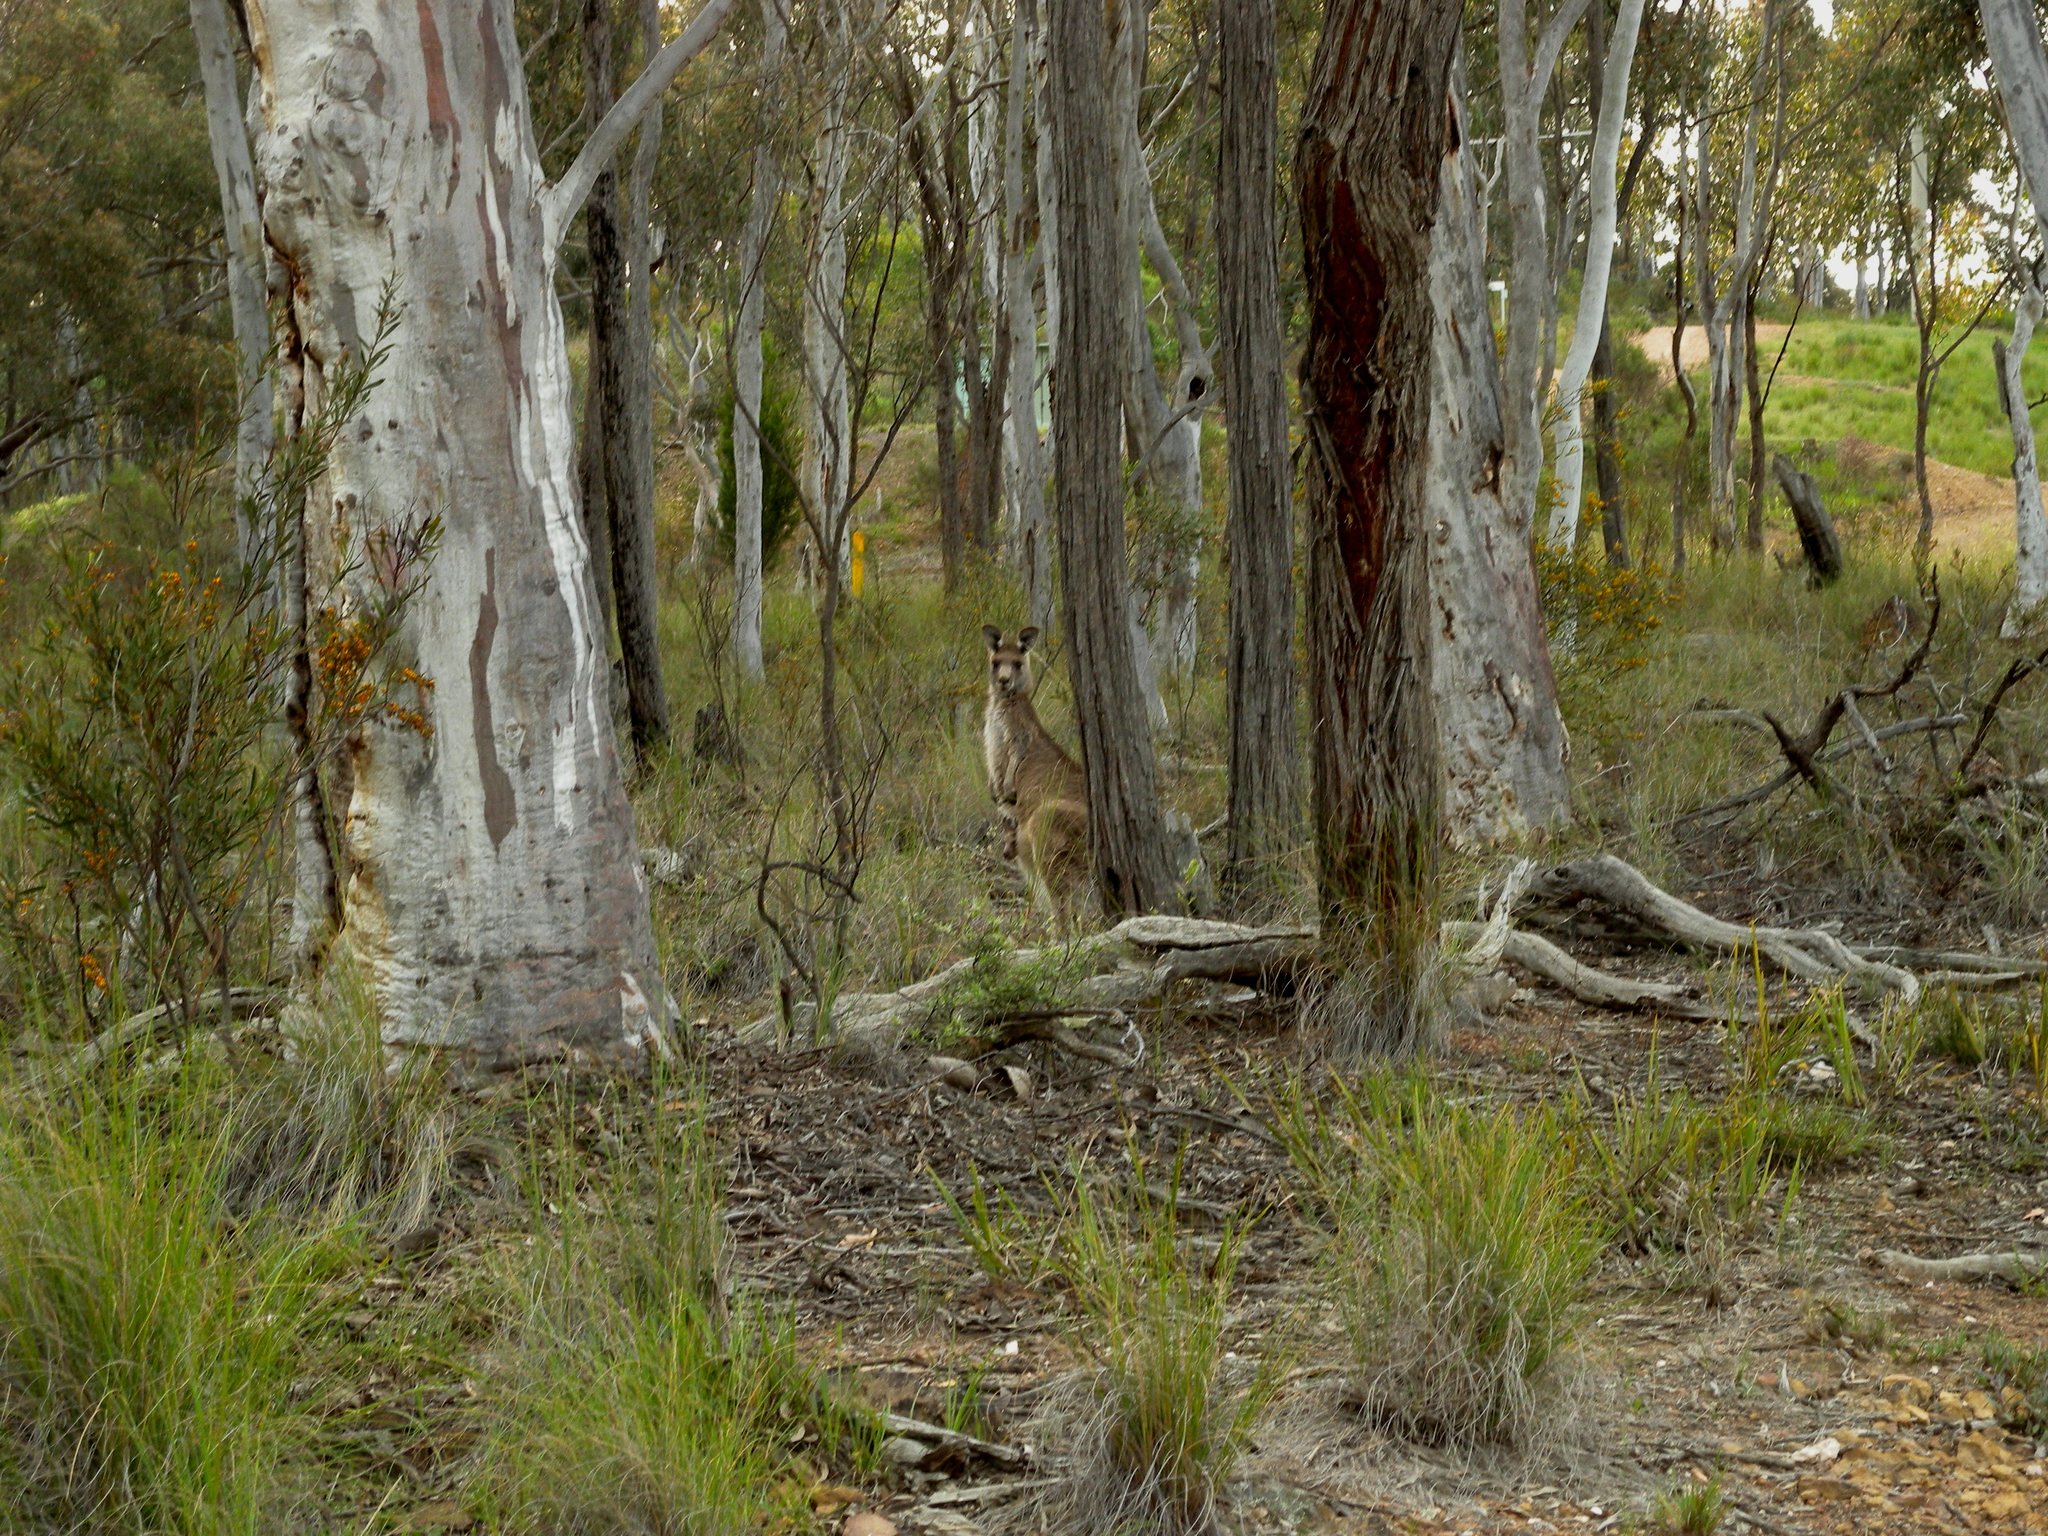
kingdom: Animalia
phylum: Chordata
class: Mammalia
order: Diprotodontia
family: Macropodidae
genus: Macropus
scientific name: Macropus giganteus
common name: Eastern grey kangaroo
